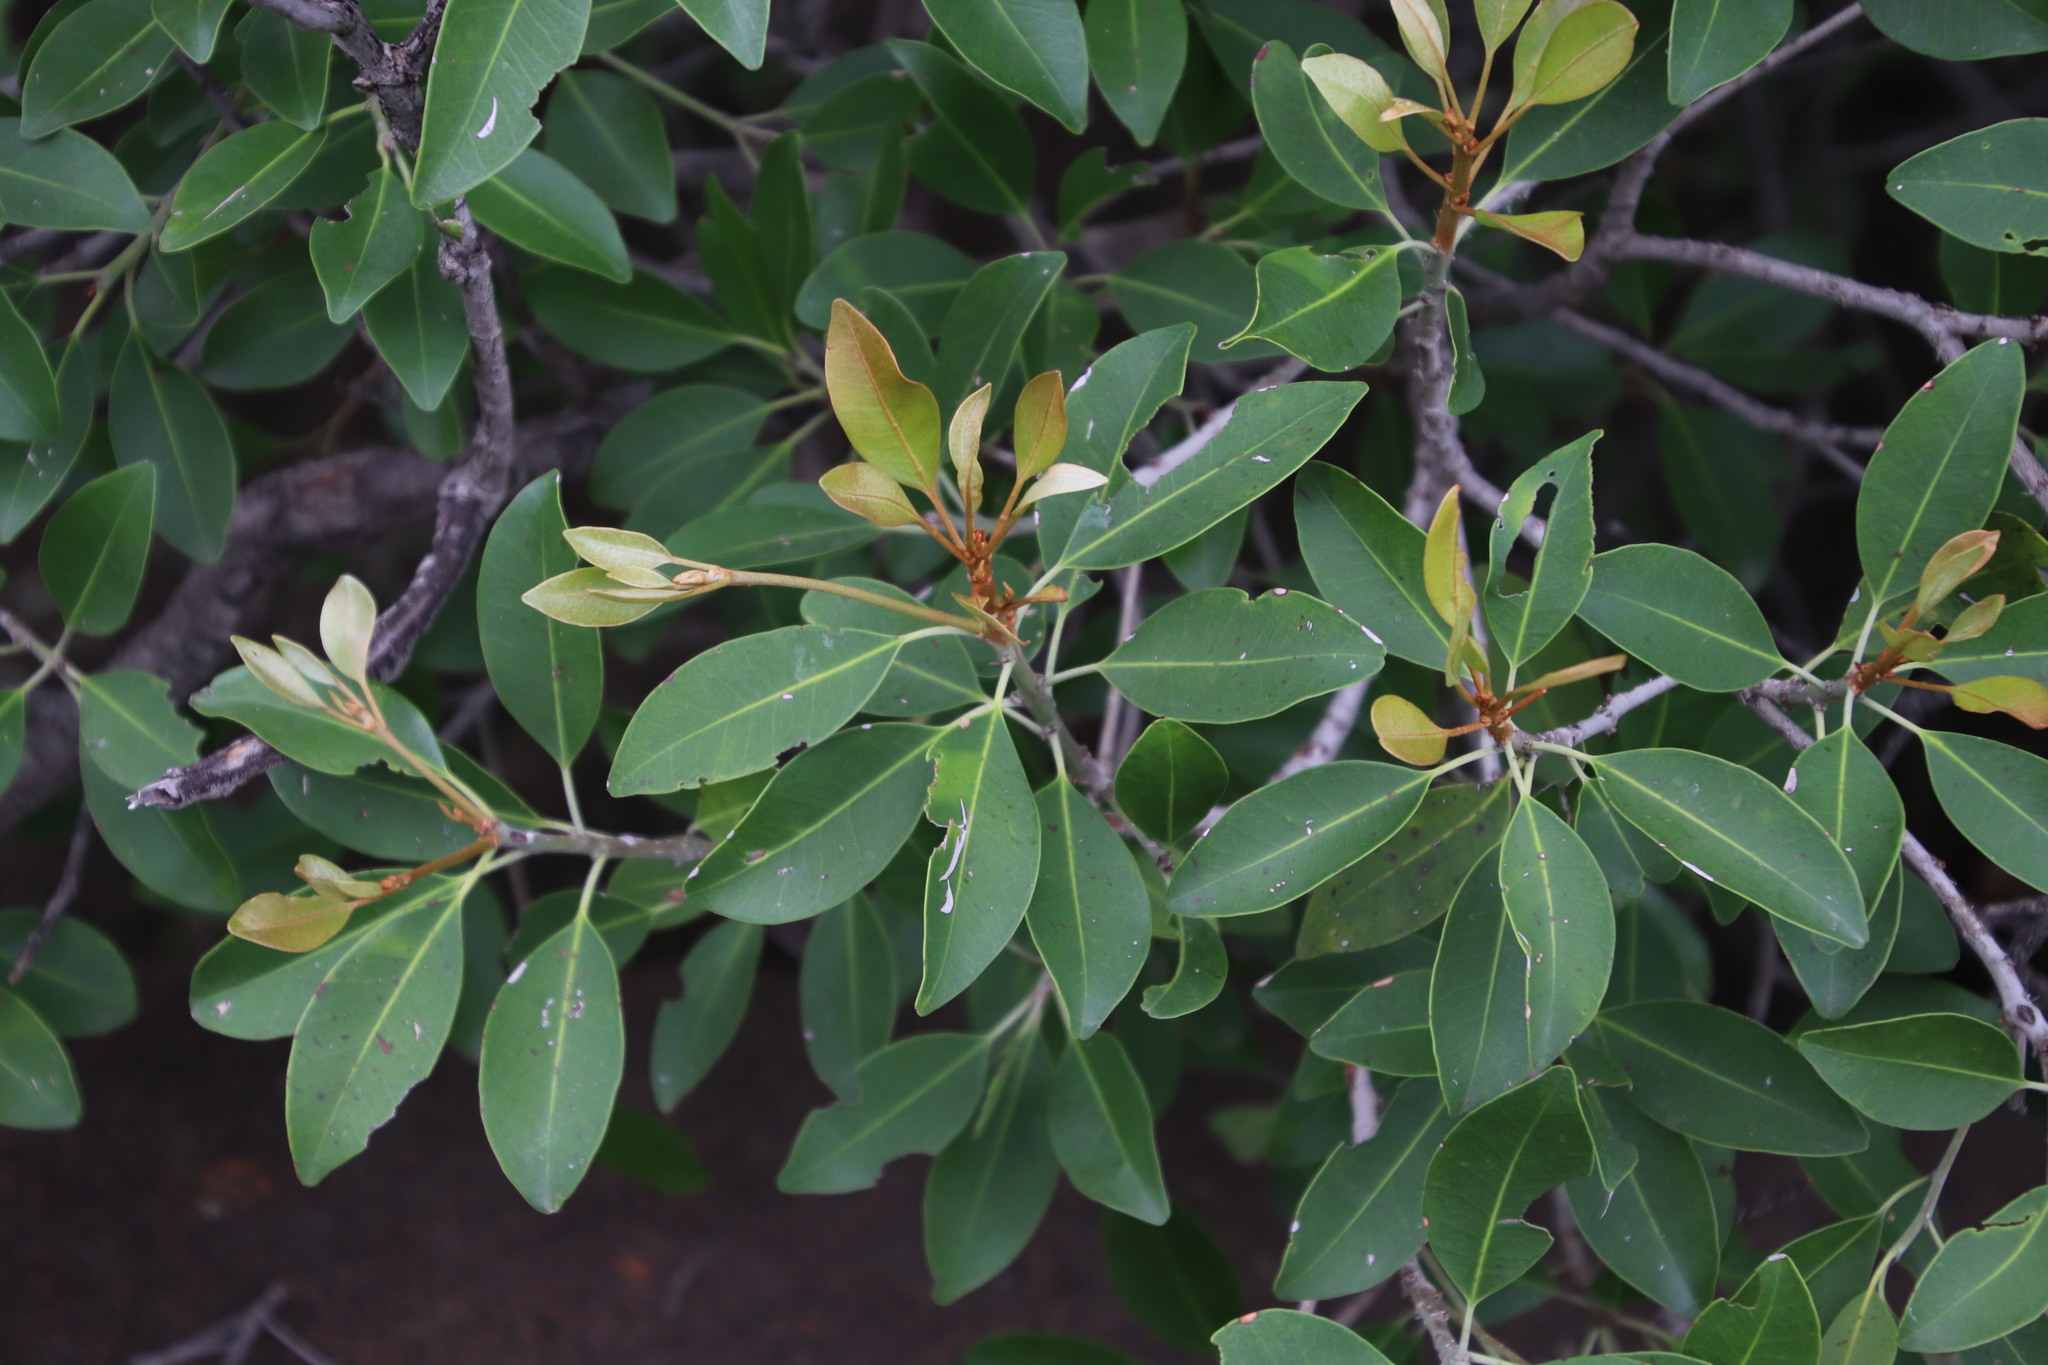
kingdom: Plantae
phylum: Tracheophyta
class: Magnoliopsida
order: Ericales
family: Sapotaceae
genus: Mimusops
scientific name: Mimusops zeyheri
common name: Transvaal red milkwood
